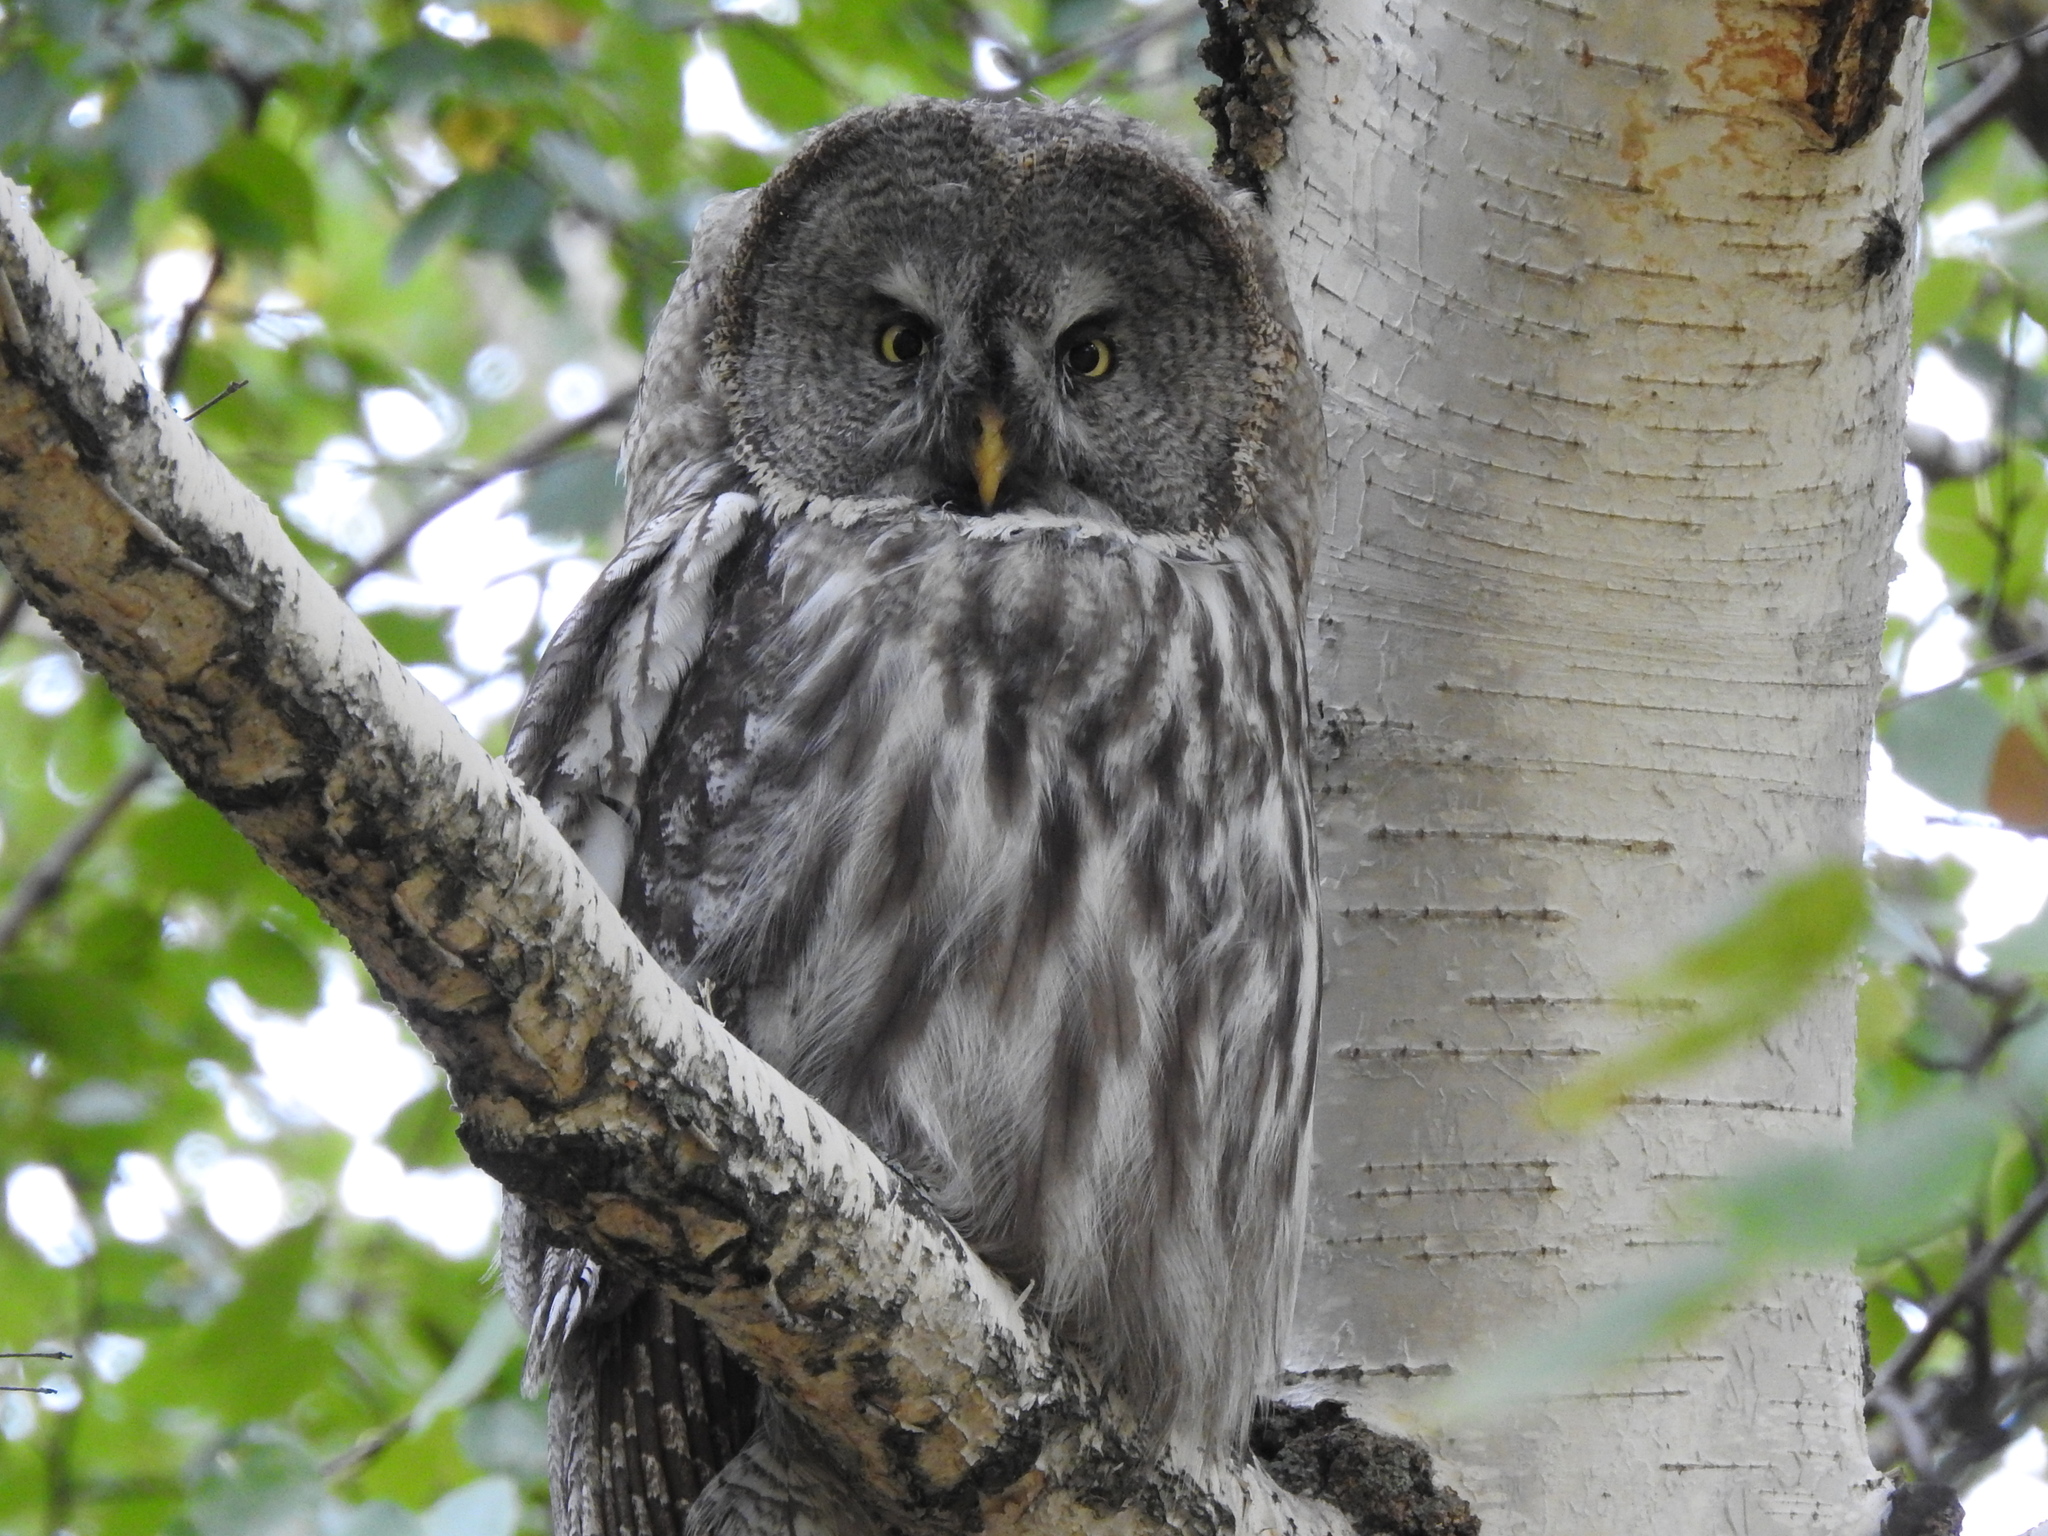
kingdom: Animalia
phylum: Chordata
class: Aves
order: Strigiformes
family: Strigidae
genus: Strix
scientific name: Strix nebulosa
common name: Great grey owl
